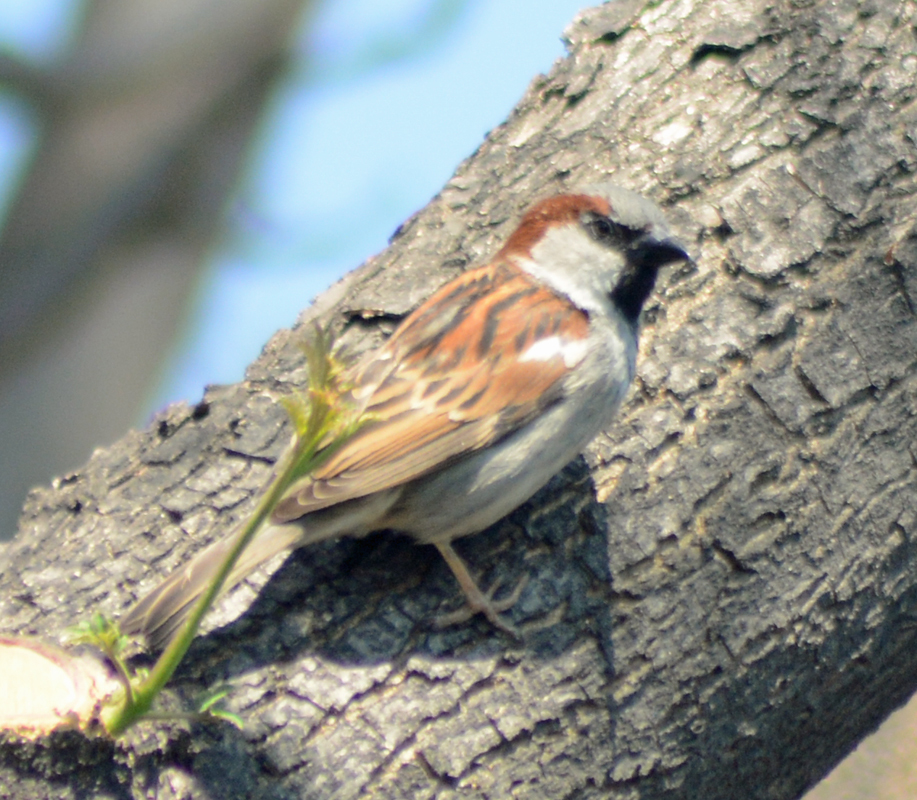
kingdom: Animalia
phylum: Chordata
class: Aves
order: Passeriformes
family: Passeridae
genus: Passer
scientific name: Passer domesticus
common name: House sparrow
